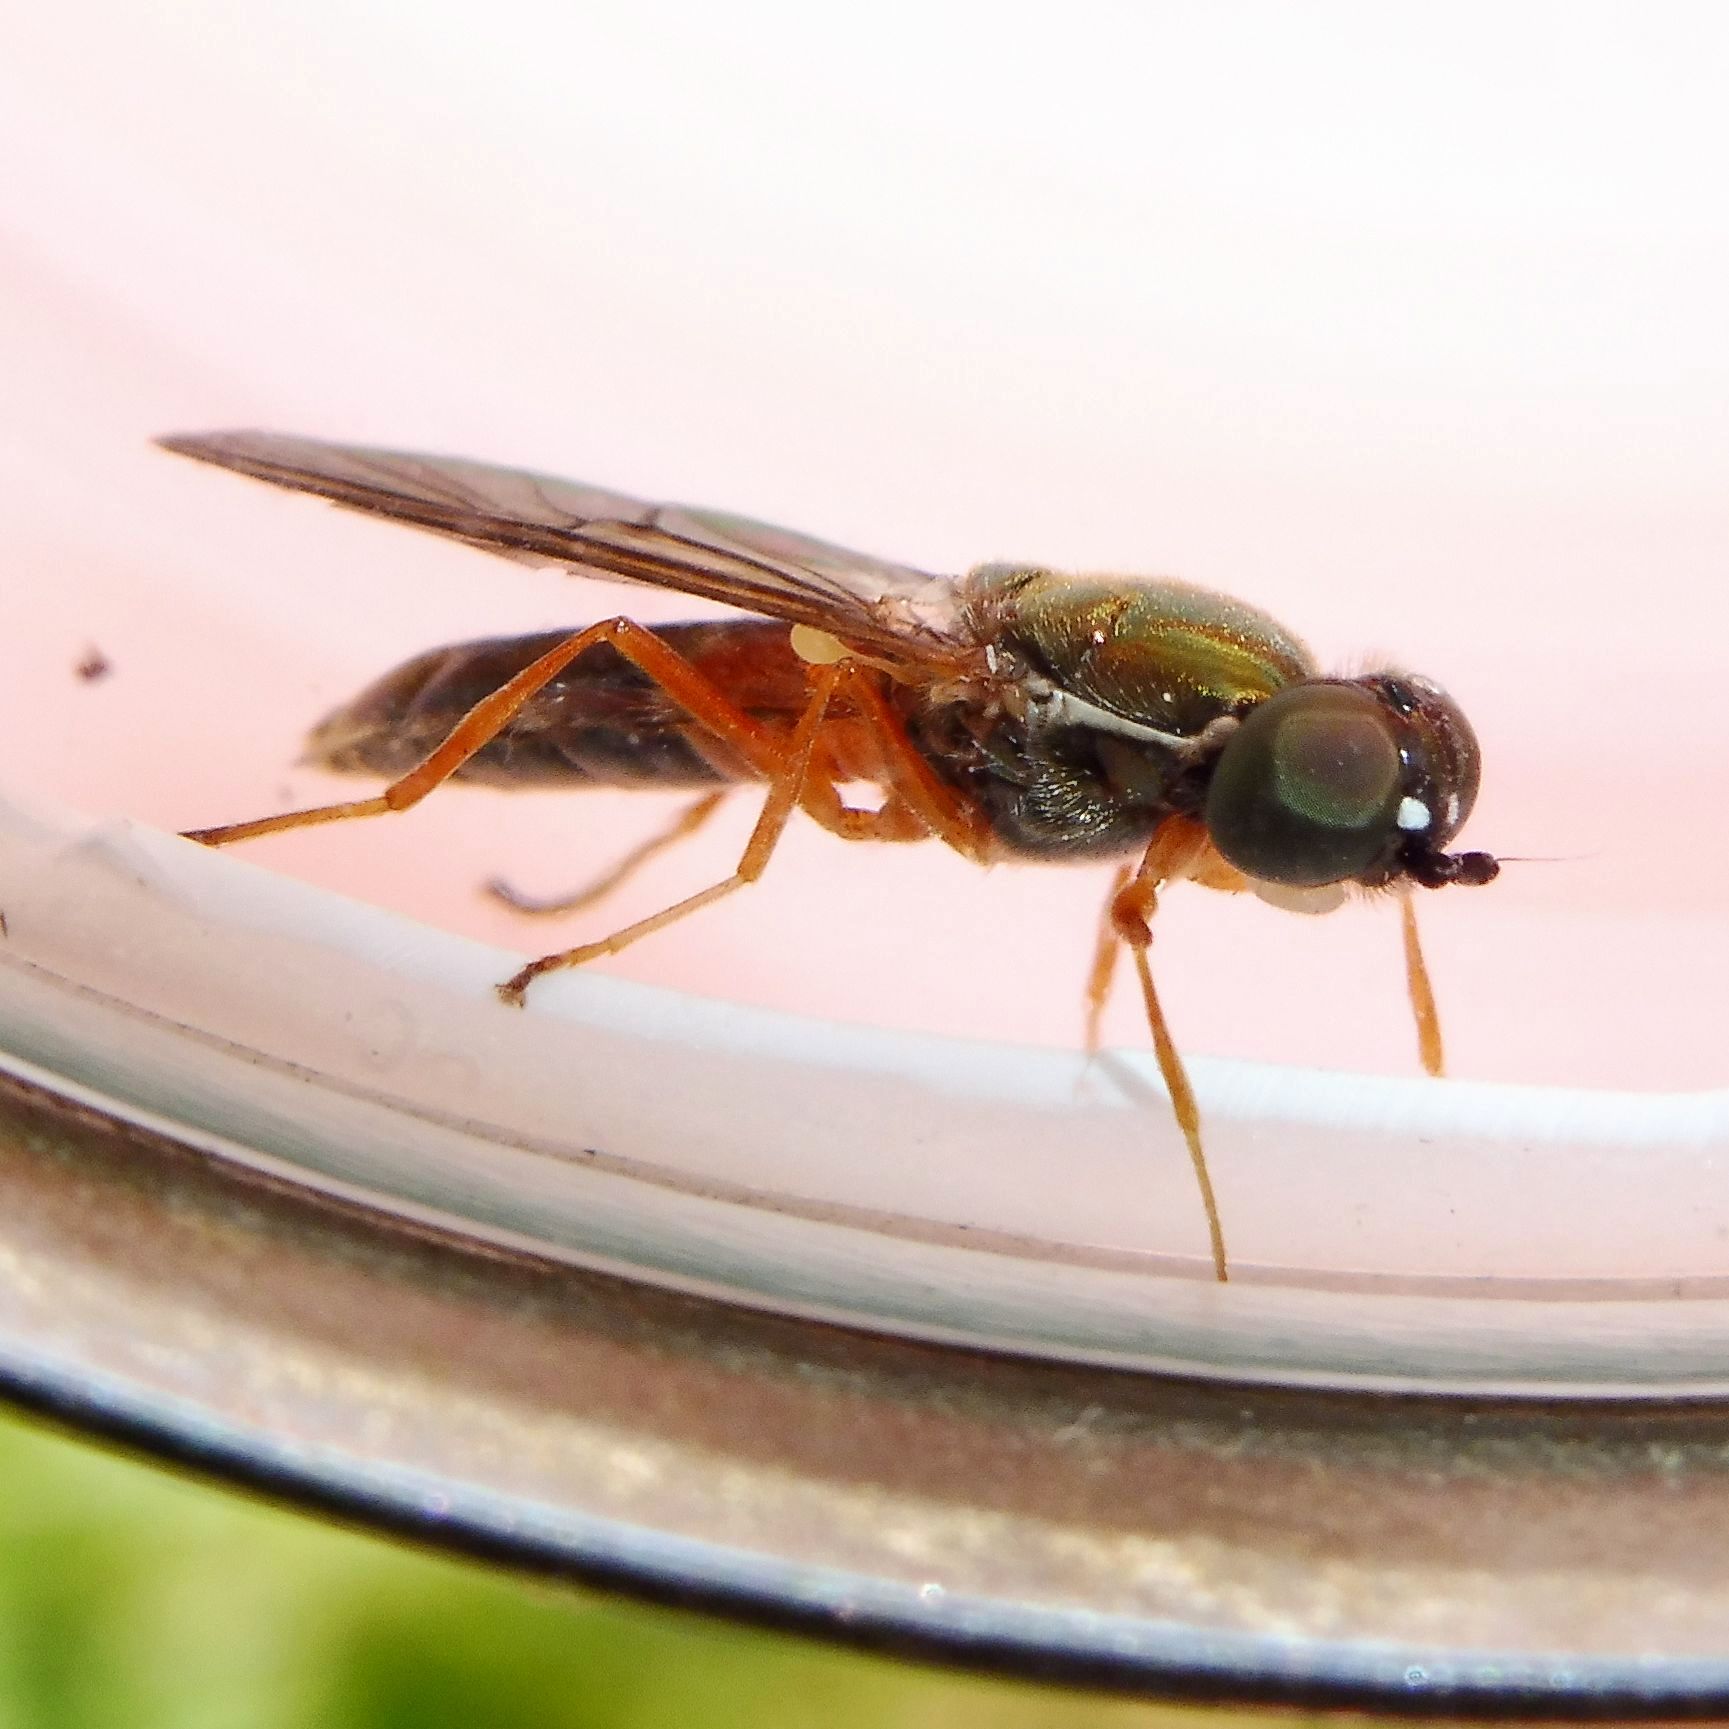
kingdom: Animalia
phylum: Arthropoda
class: Insecta
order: Diptera
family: Stratiomyidae
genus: Sargus
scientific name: Sargus bipunctatus
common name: Twin-spot centurion
